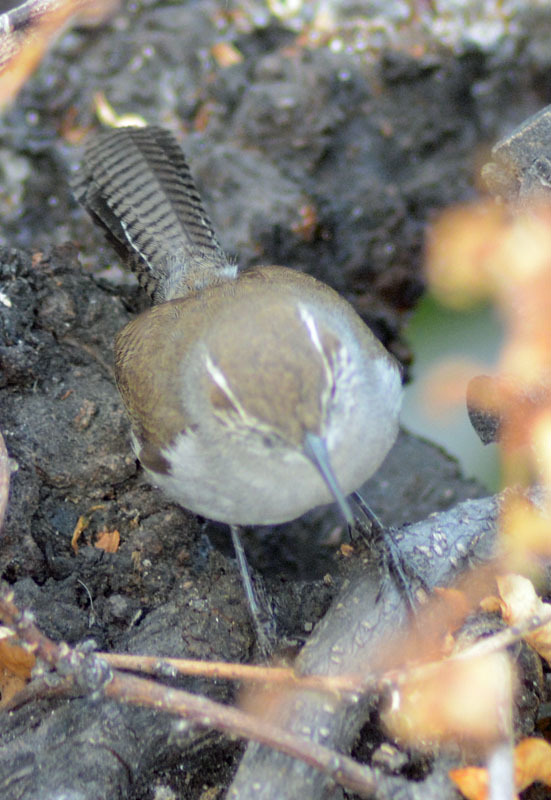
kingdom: Animalia
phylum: Chordata
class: Aves
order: Passeriformes
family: Troglodytidae
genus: Thryomanes
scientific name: Thryomanes bewickii
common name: Bewick's wren
